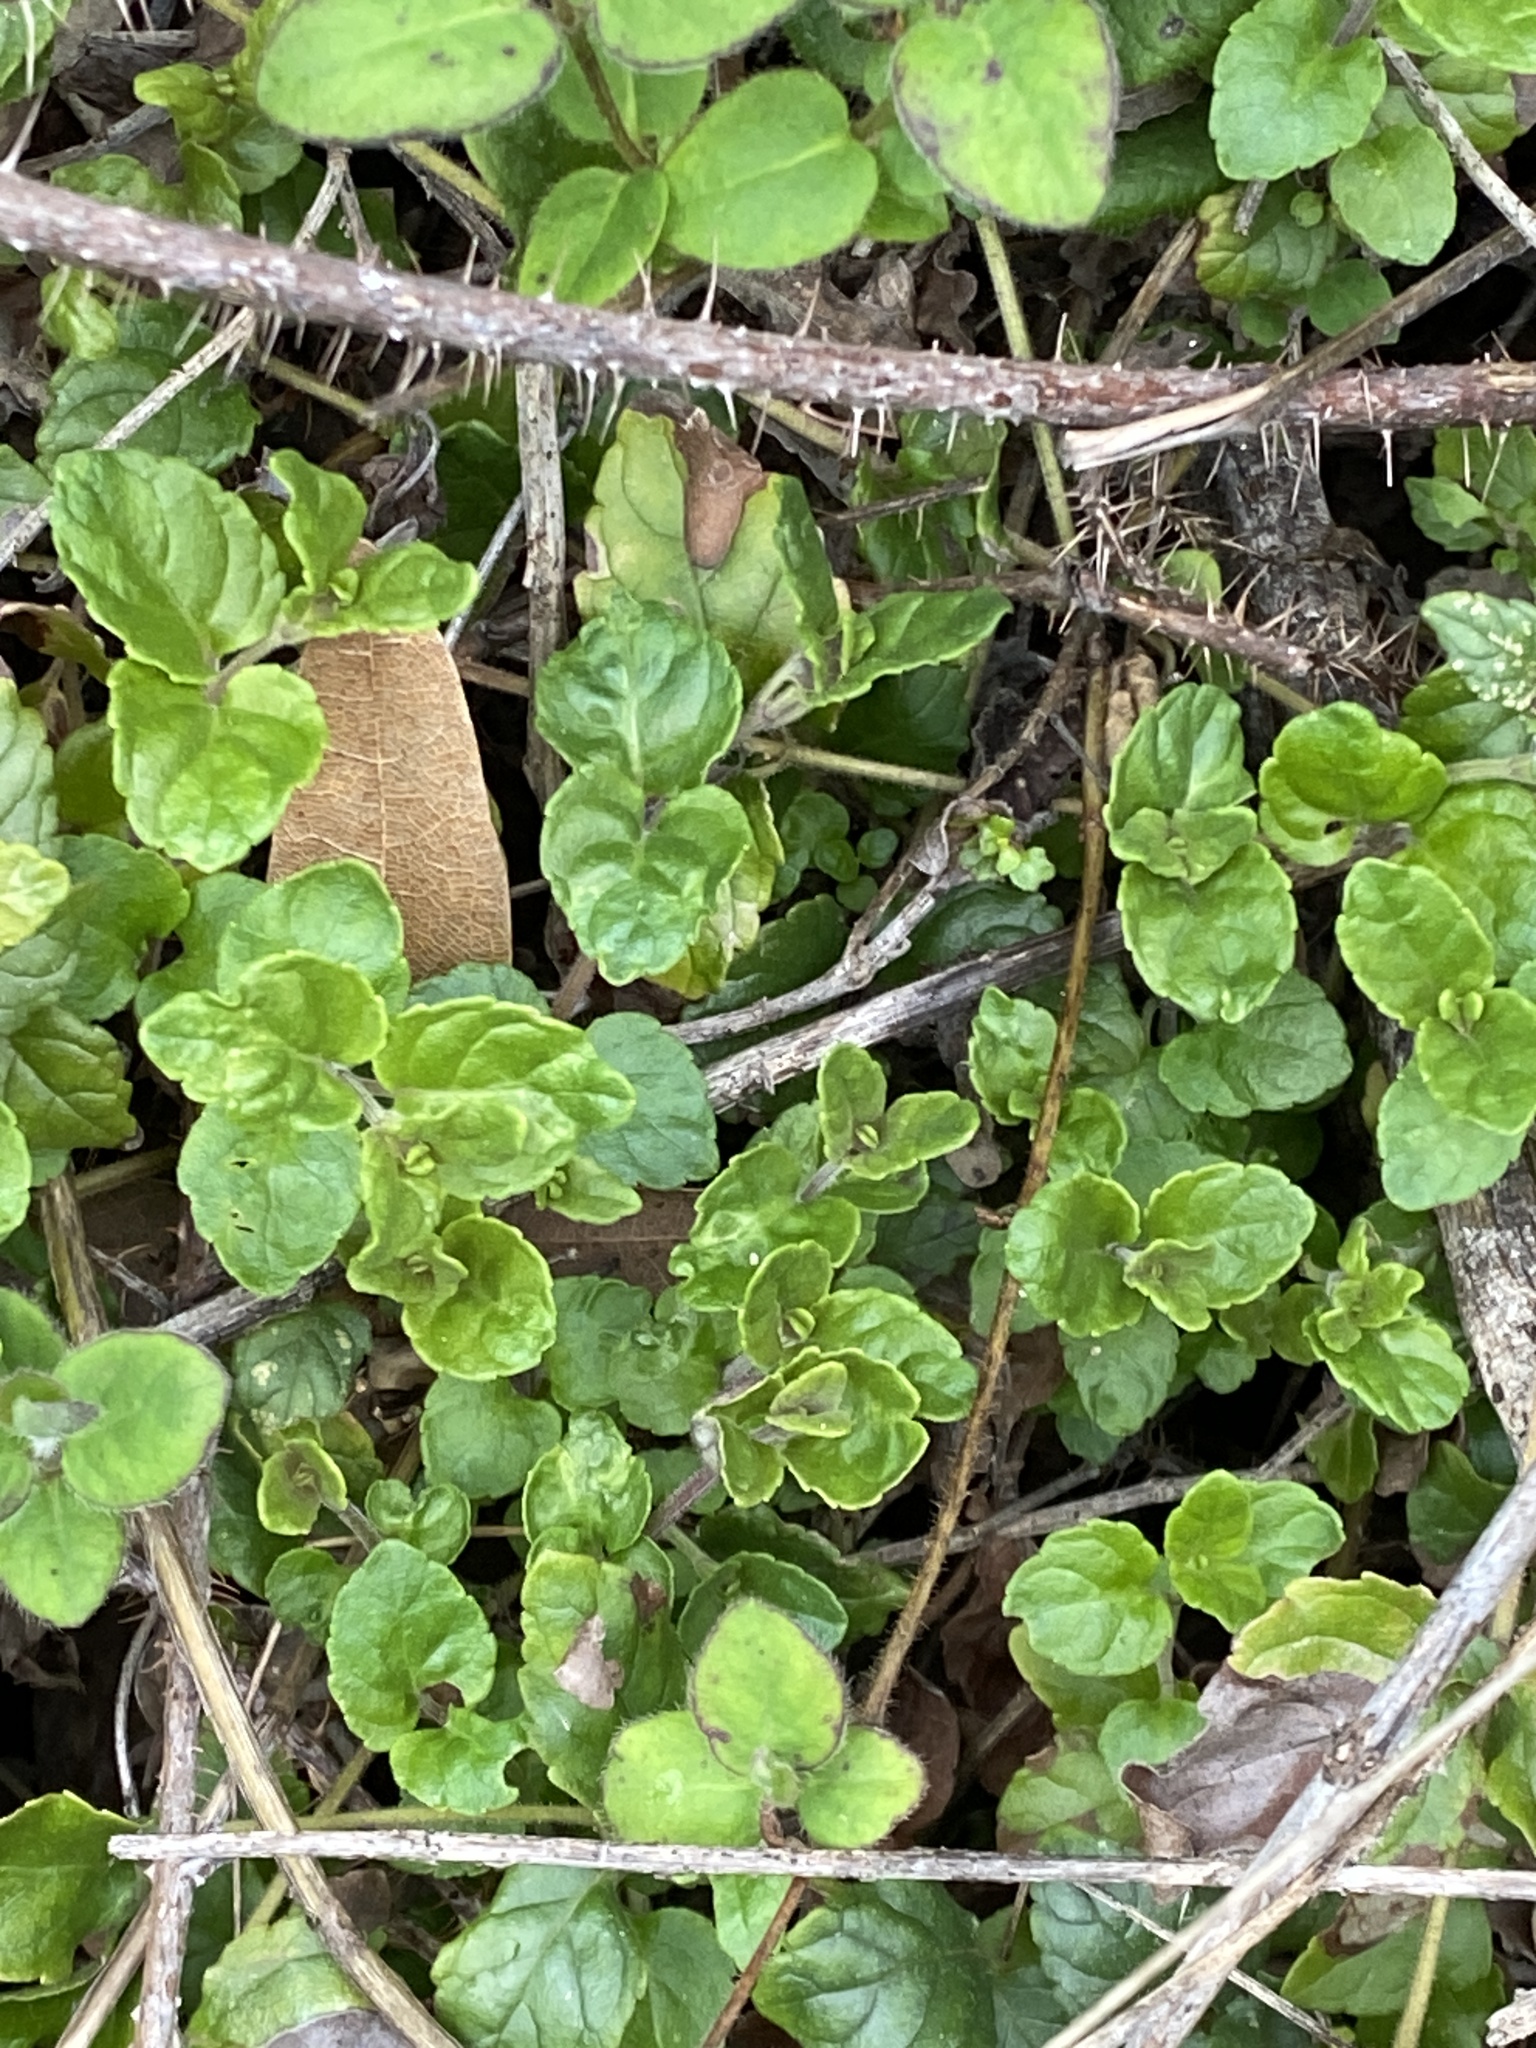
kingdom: Plantae
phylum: Tracheophyta
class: Magnoliopsida
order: Lamiales
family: Lamiaceae
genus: Micromeria
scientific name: Micromeria douglasii
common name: Yerba buena
